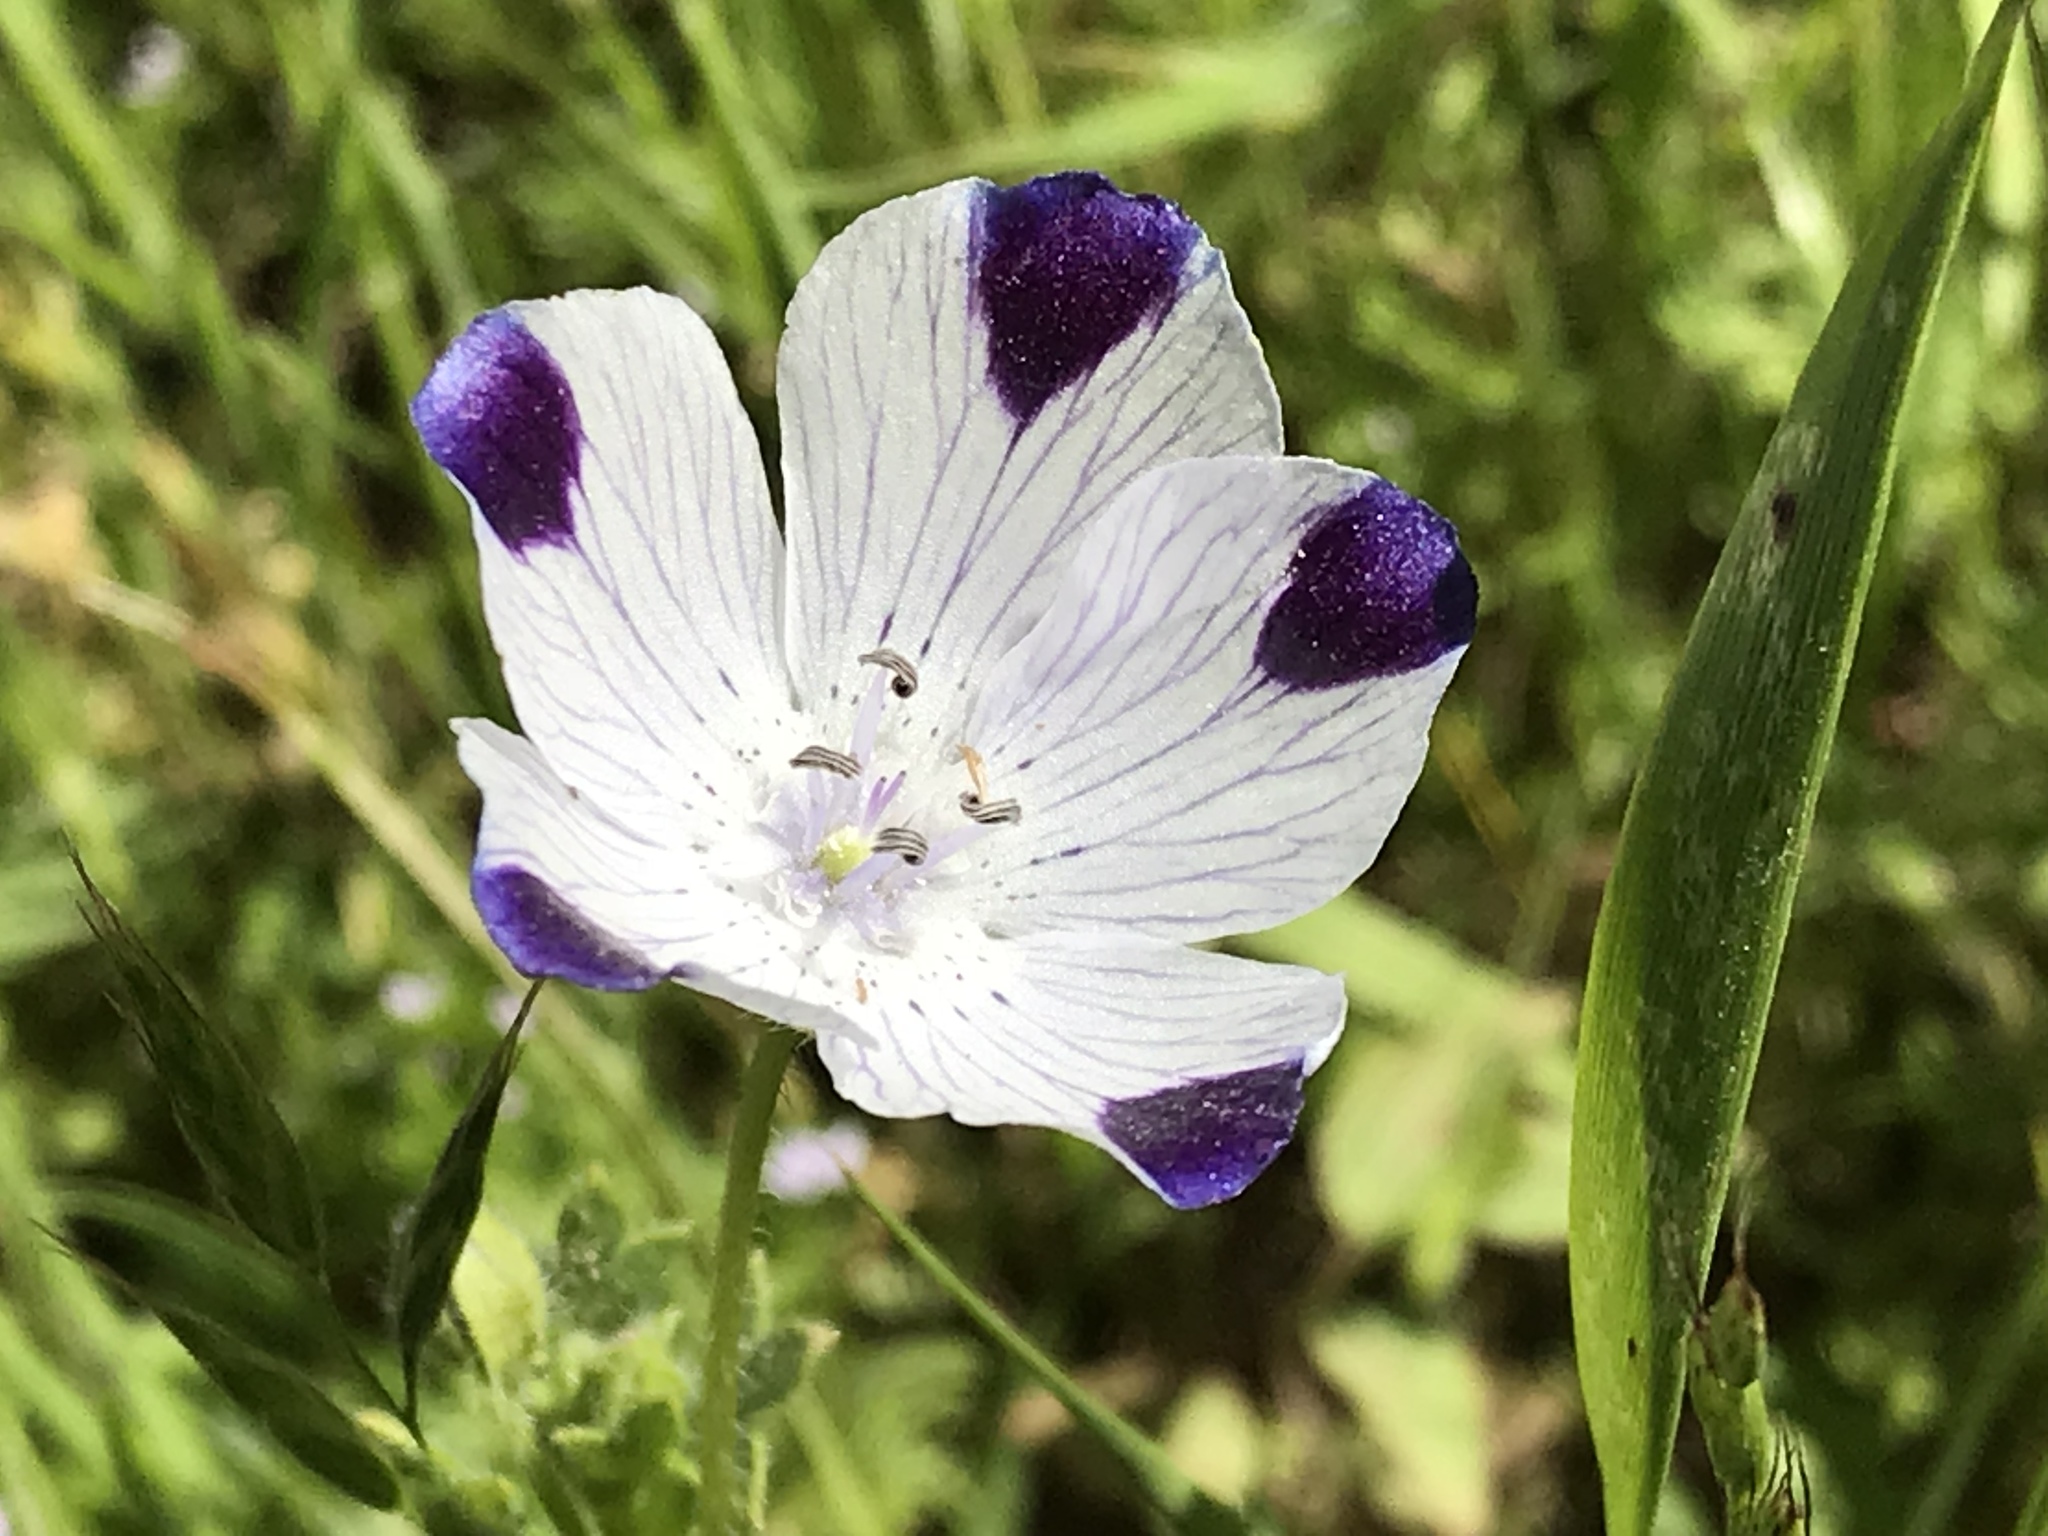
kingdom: Plantae
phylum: Tracheophyta
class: Magnoliopsida
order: Boraginales
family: Hydrophyllaceae
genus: Nemophila
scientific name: Nemophila maculata
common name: Fivespot
